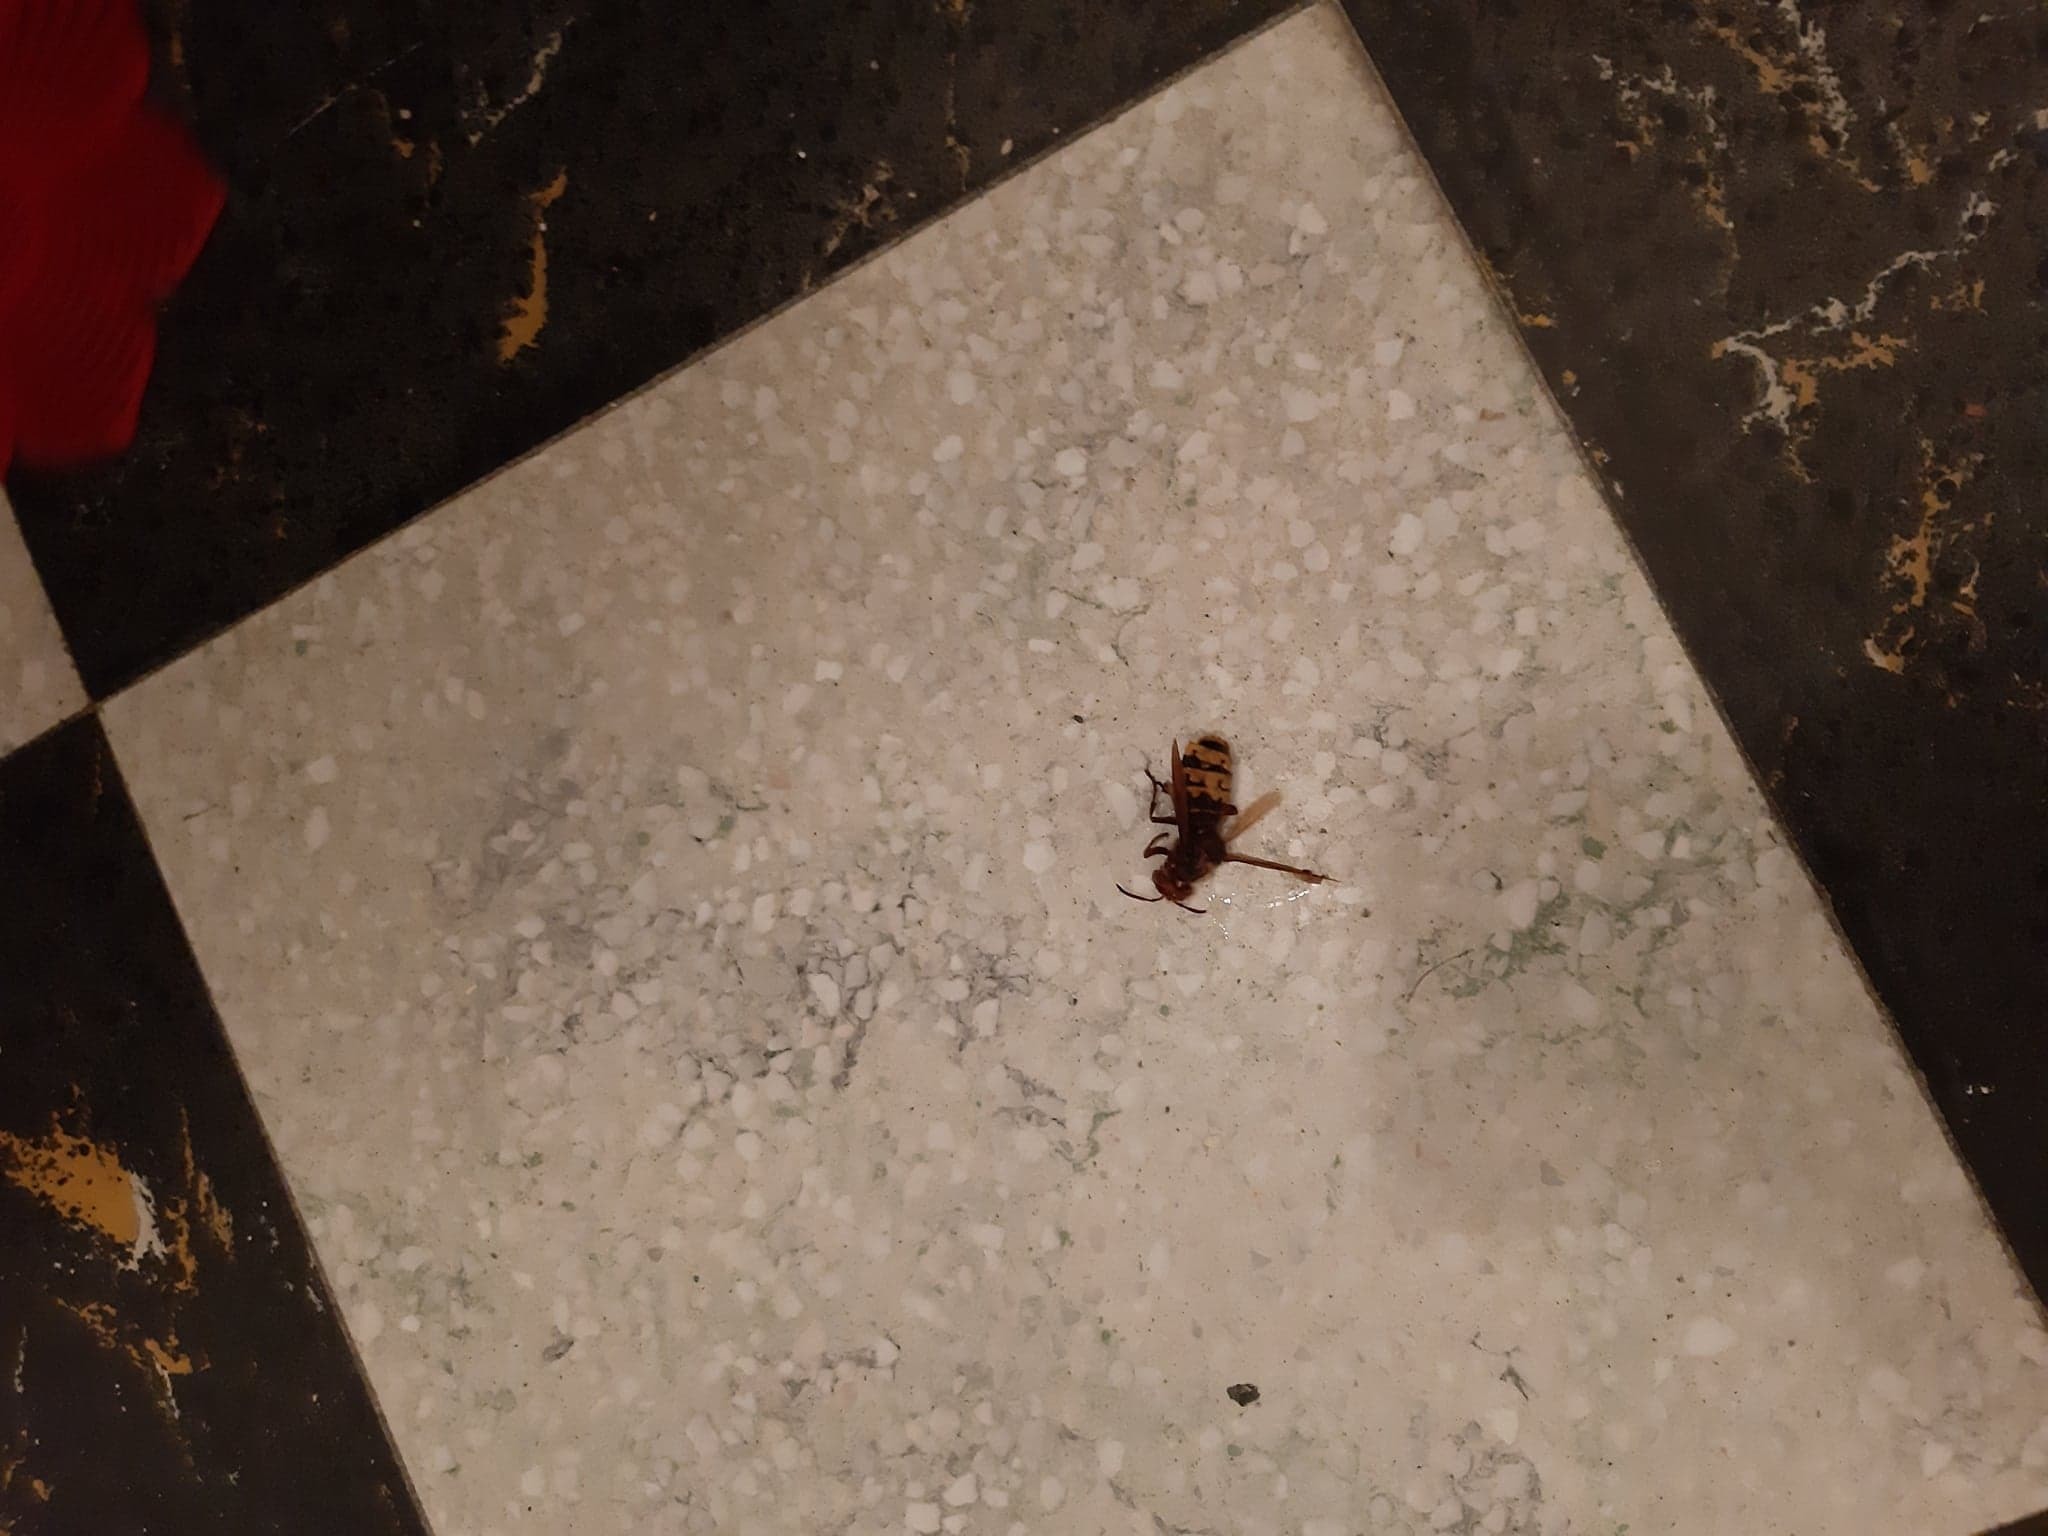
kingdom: Animalia
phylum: Arthropoda
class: Insecta
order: Hymenoptera
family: Vespidae
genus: Vespa
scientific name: Vespa crabro
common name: Hornet
